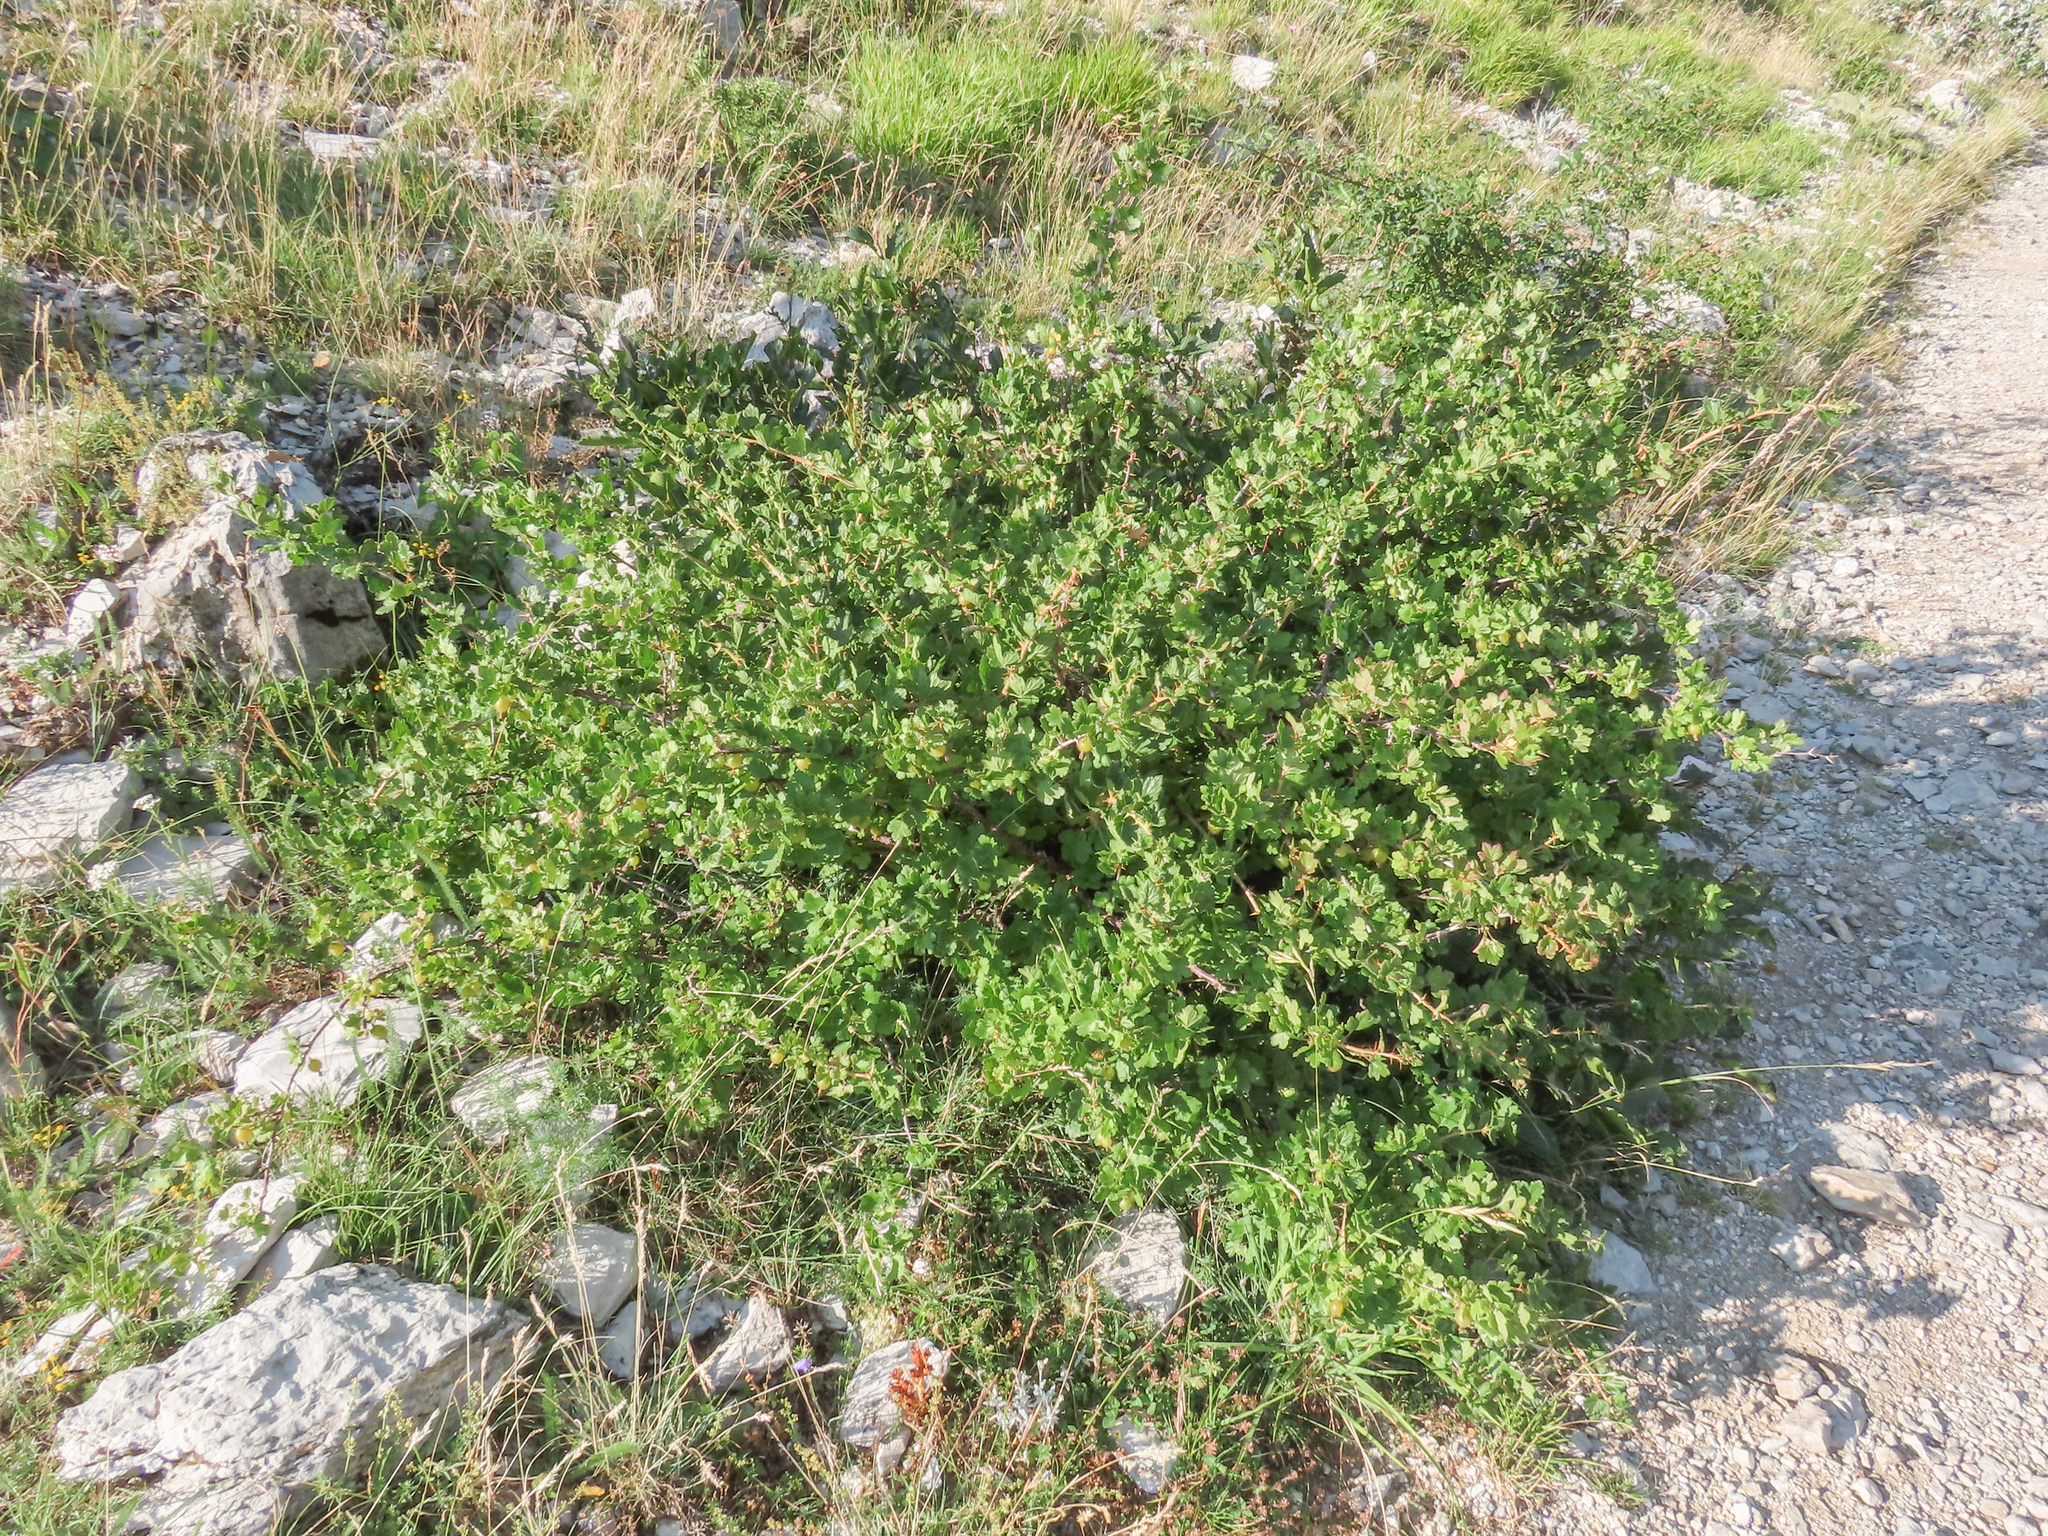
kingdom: Plantae
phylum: Tracheophyta
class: Magnoliopsida
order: Saxifragales
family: Grossulariaceae
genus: Ribes
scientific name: Ribes uva-crispa
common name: Gooseberry
